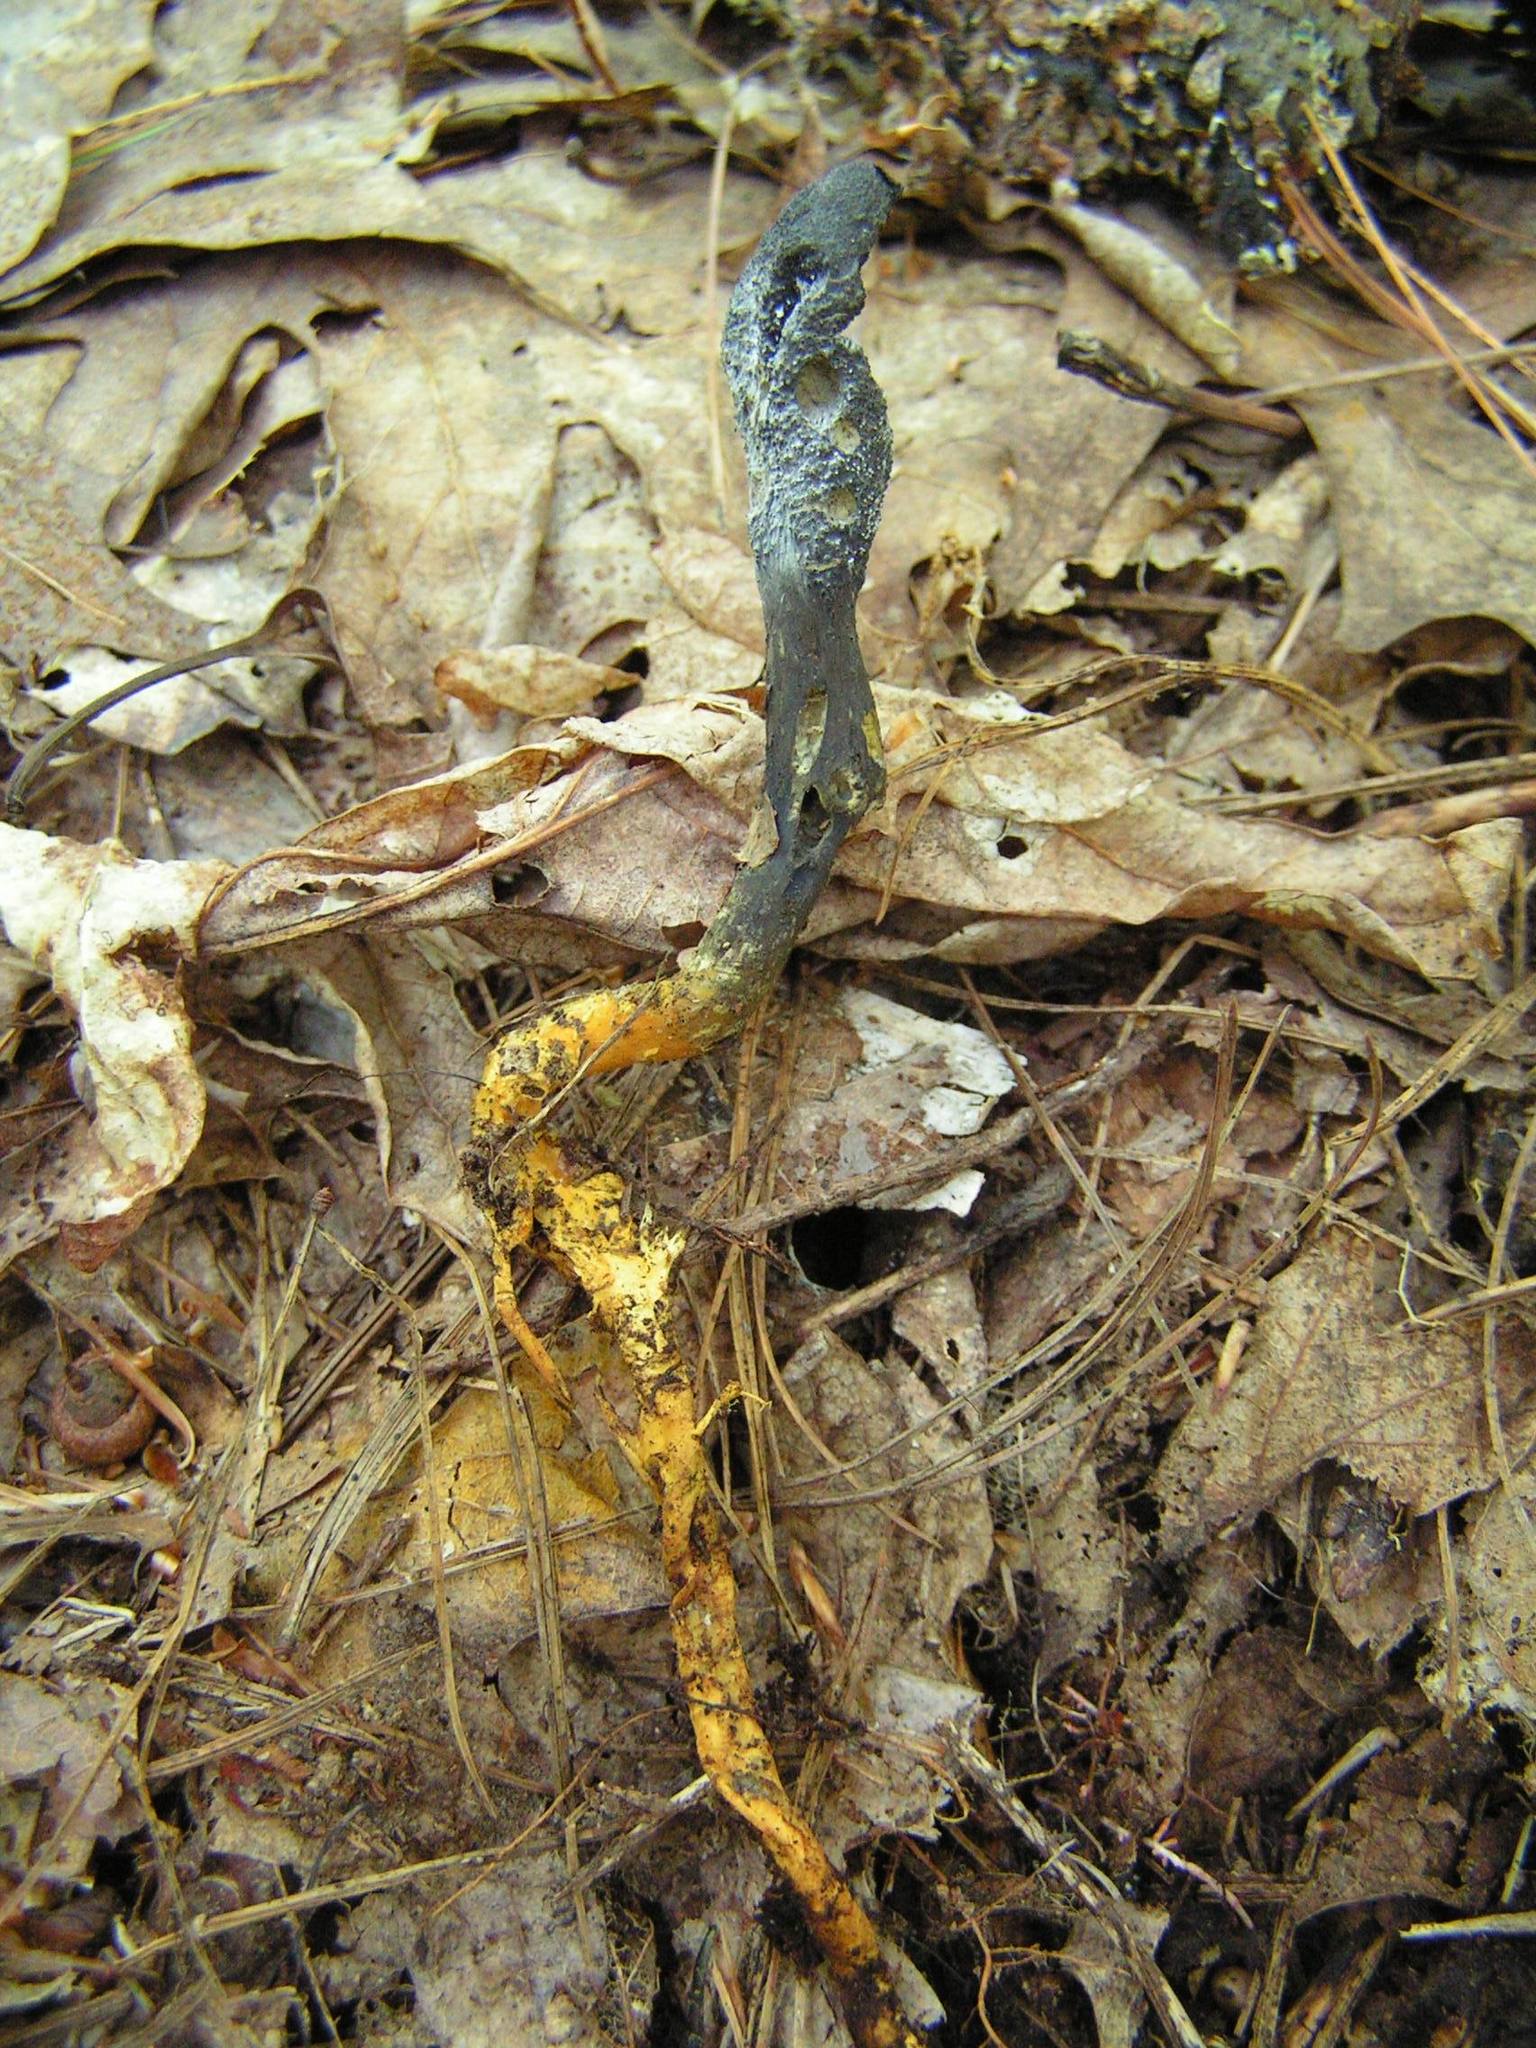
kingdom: Fungi
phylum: Ascomycota
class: Sordariomycetes
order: Hypocreales
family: Ophiocordycipitaceae
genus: Tolypocladium
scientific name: Tolypocladium ophioglossoides
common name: Snaketongue truffleclub
